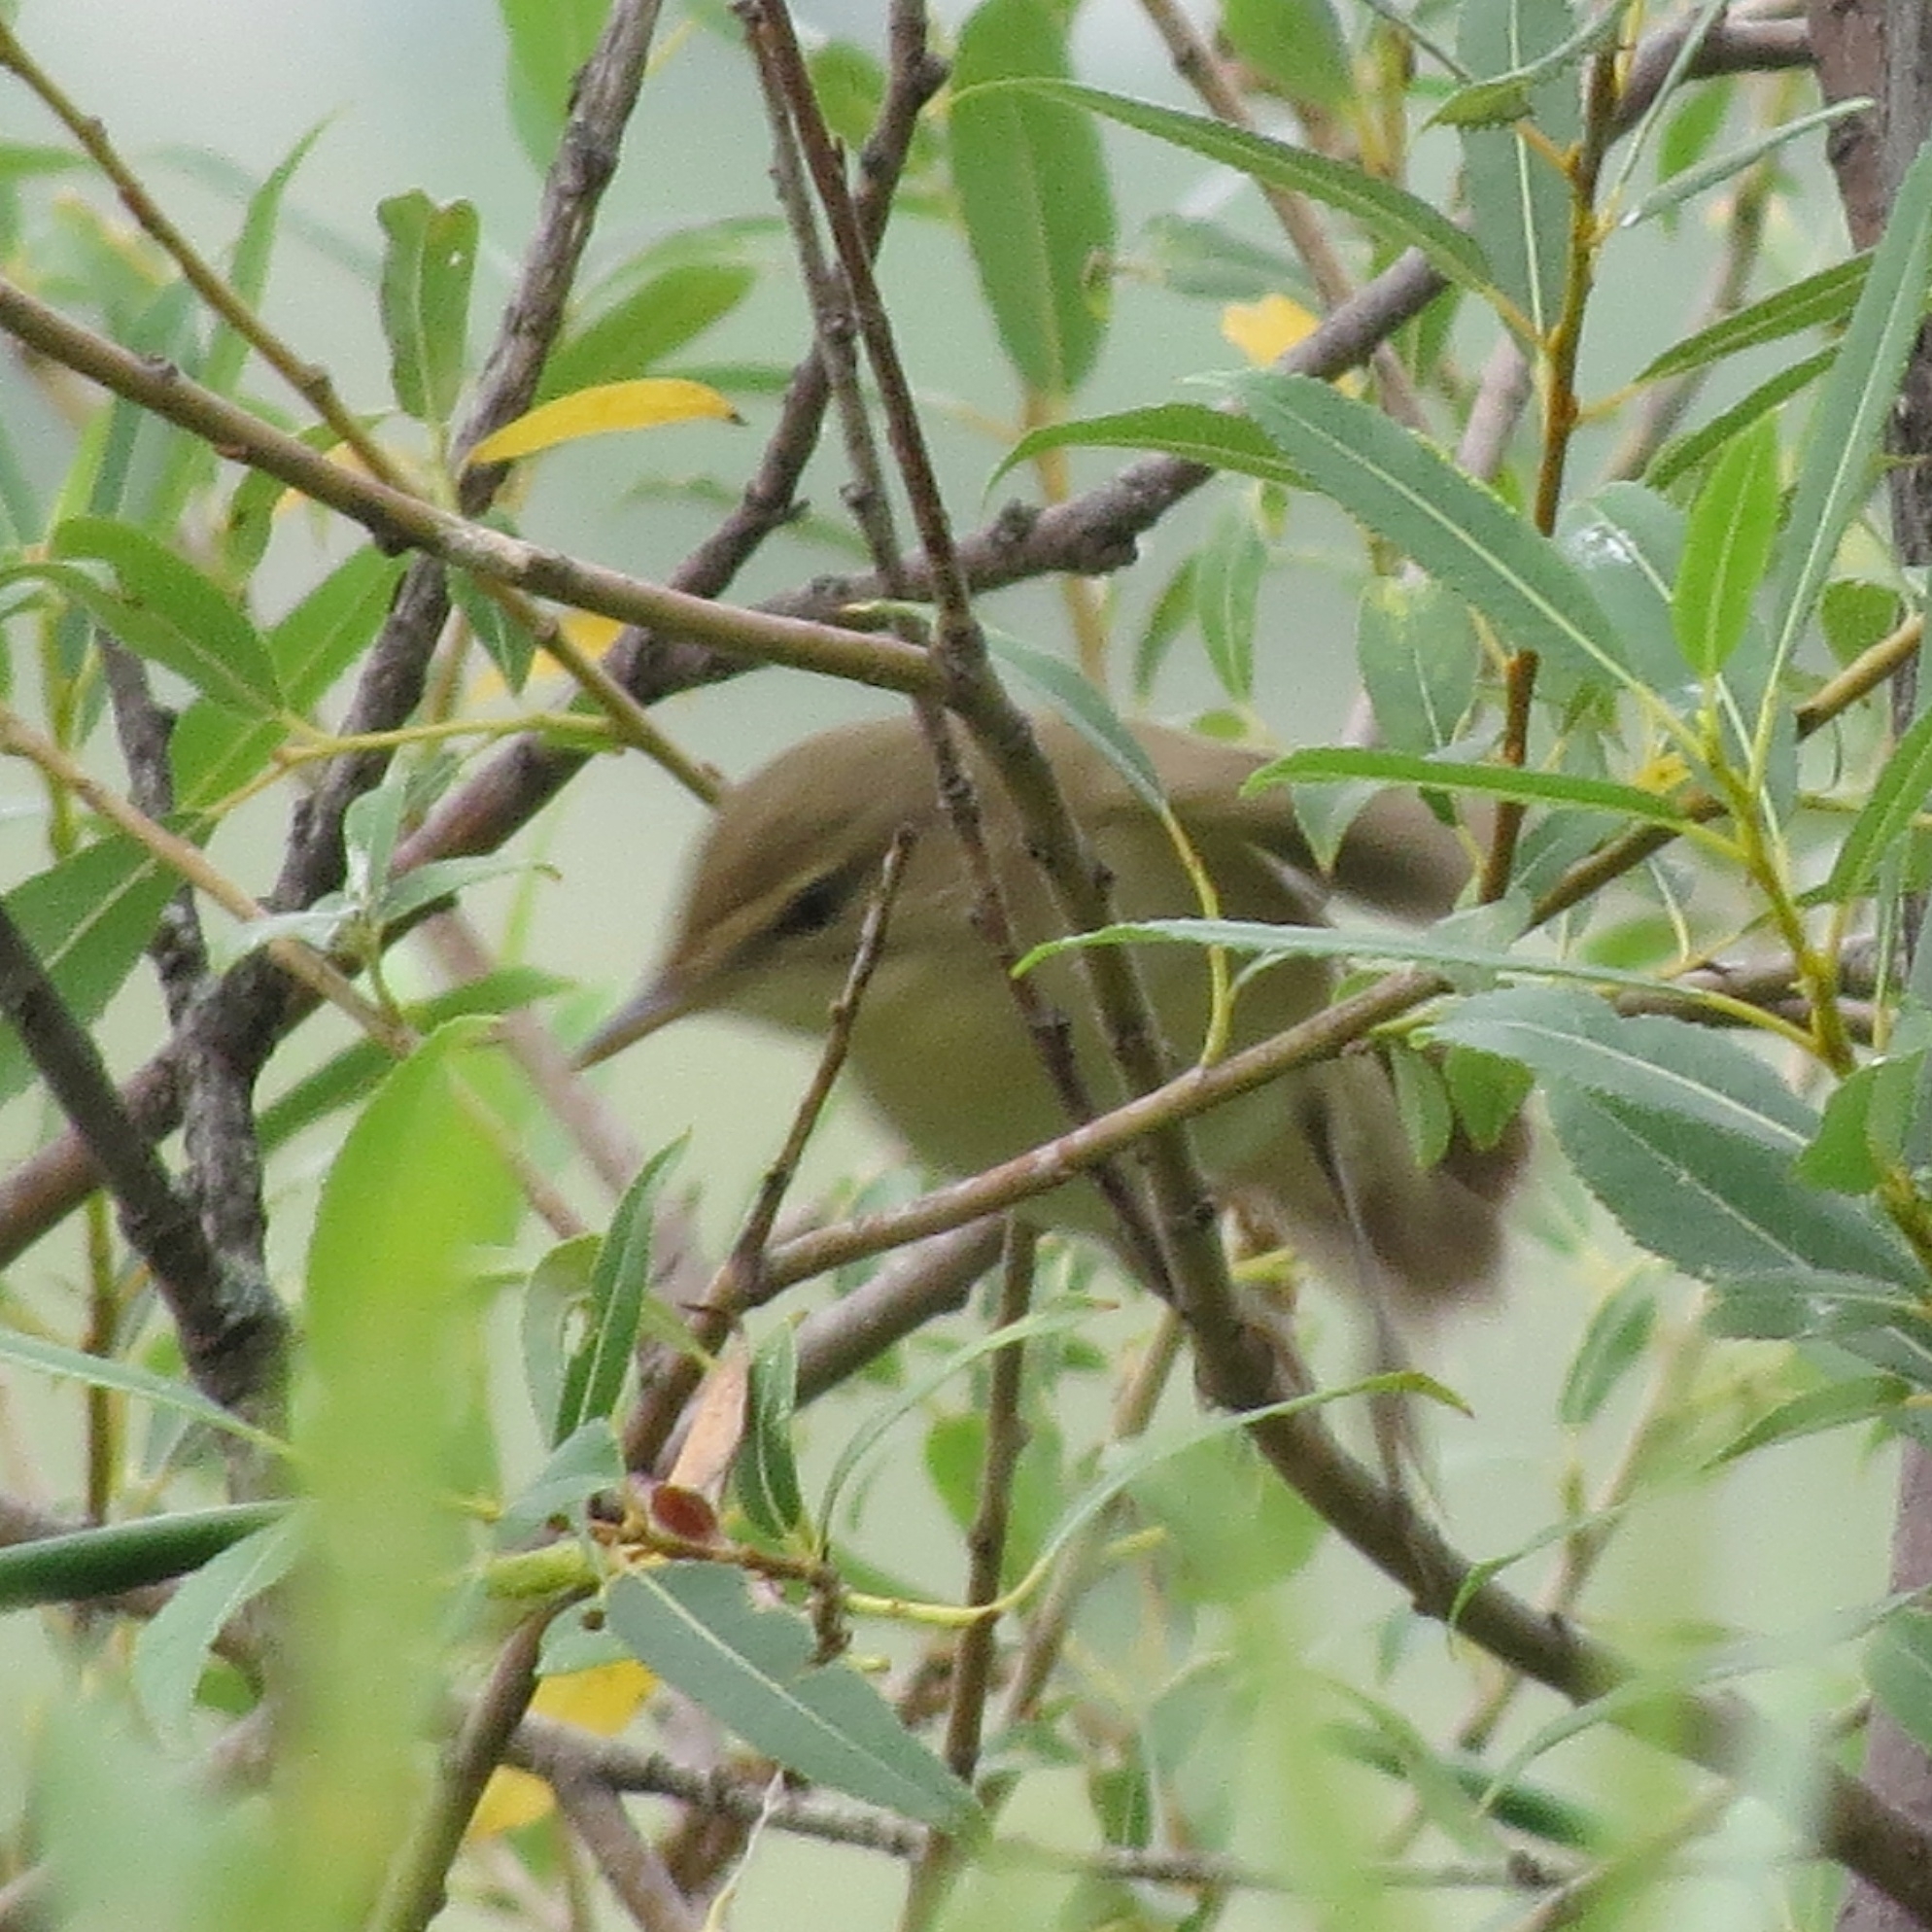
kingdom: Animalia
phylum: Chordata
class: Aves
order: Passeriformes
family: Acrocephalidae
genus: Acrocephalus
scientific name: Acrocephalus dumetorum
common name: Blyth's reed warbler
